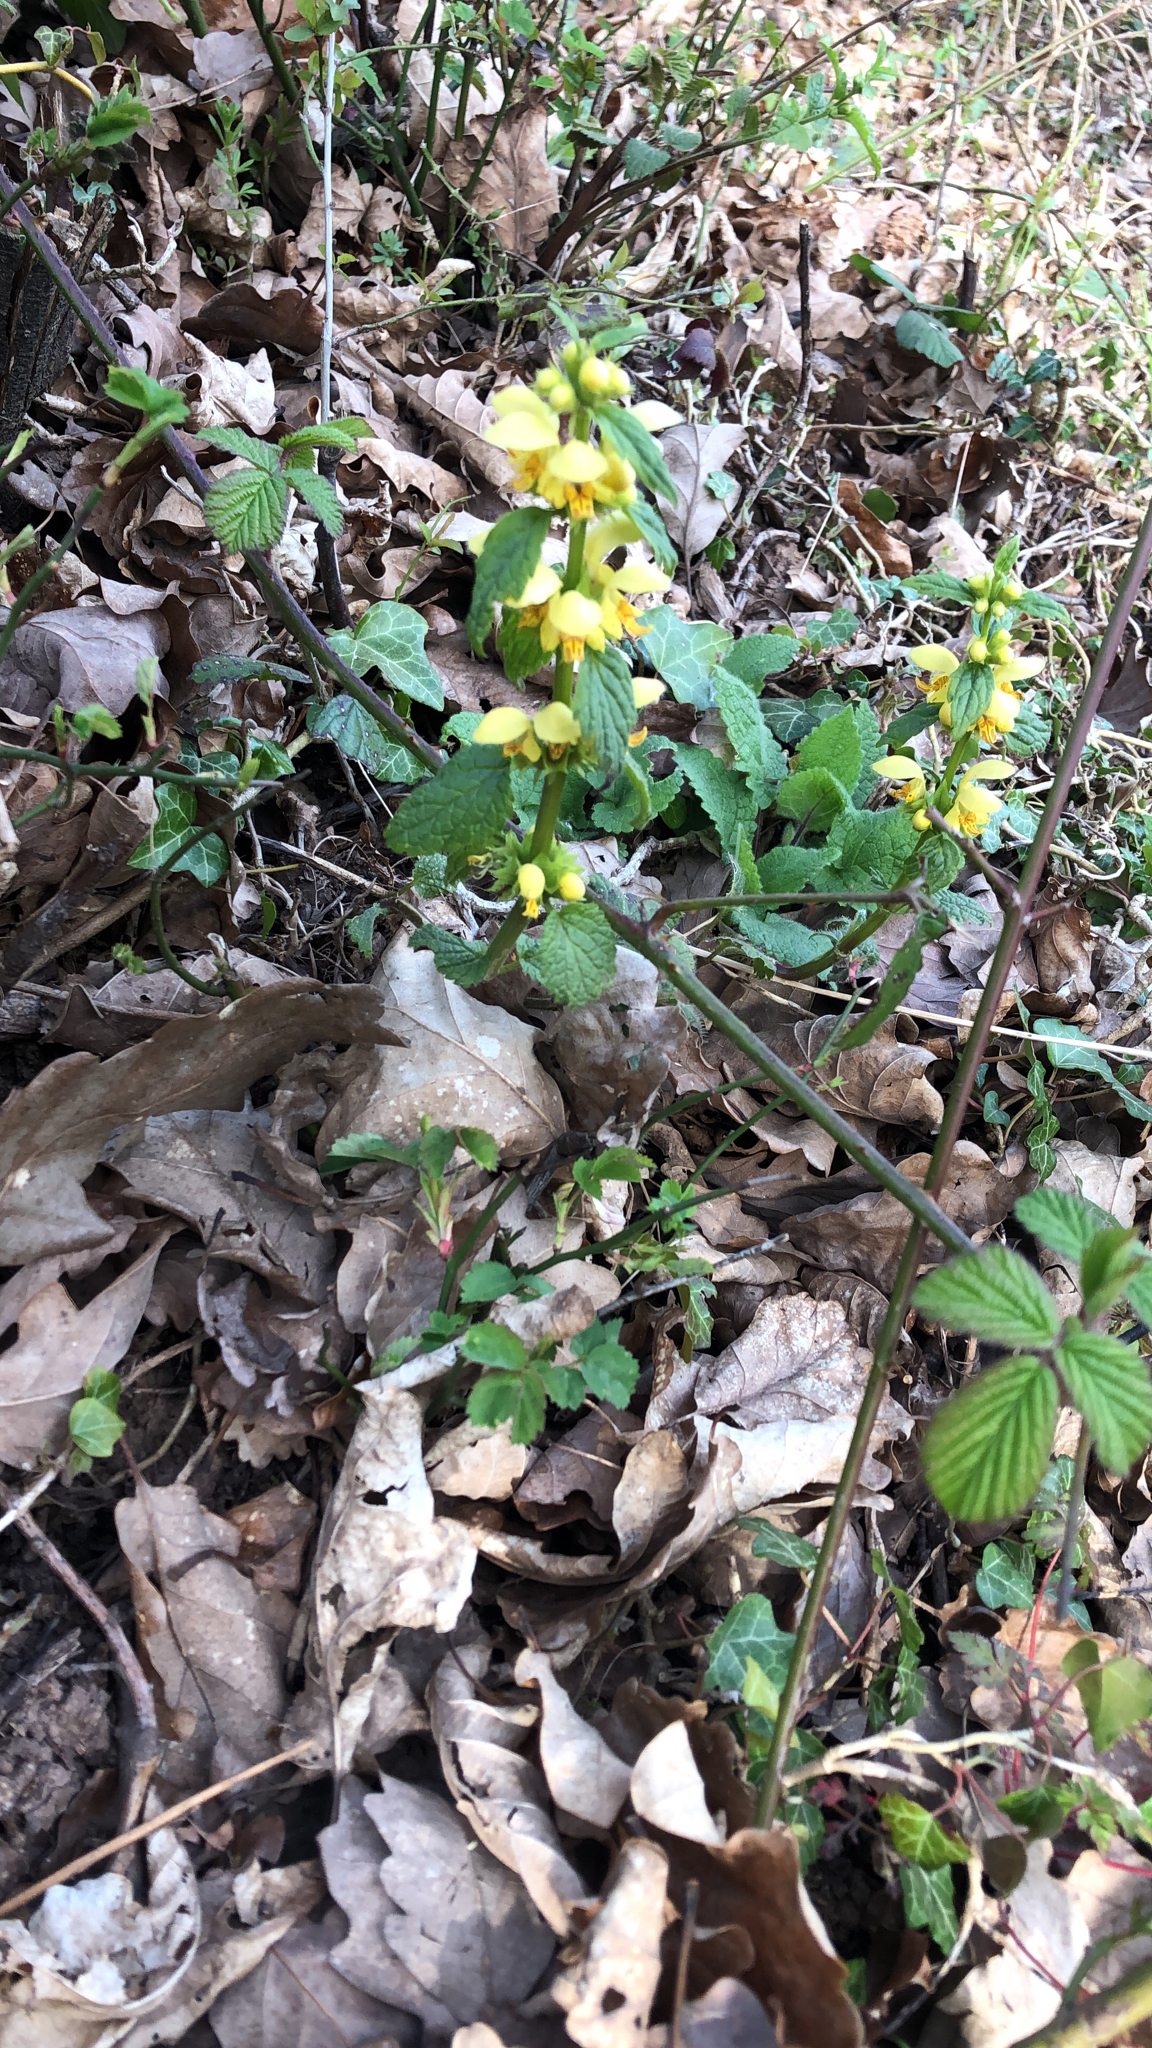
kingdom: Plantae
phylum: Tracheophyta
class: Magnoliopsida
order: Lamiales
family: Lamiaceae
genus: Lamium
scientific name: Lamium galeobdolon
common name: Yellow archangel
